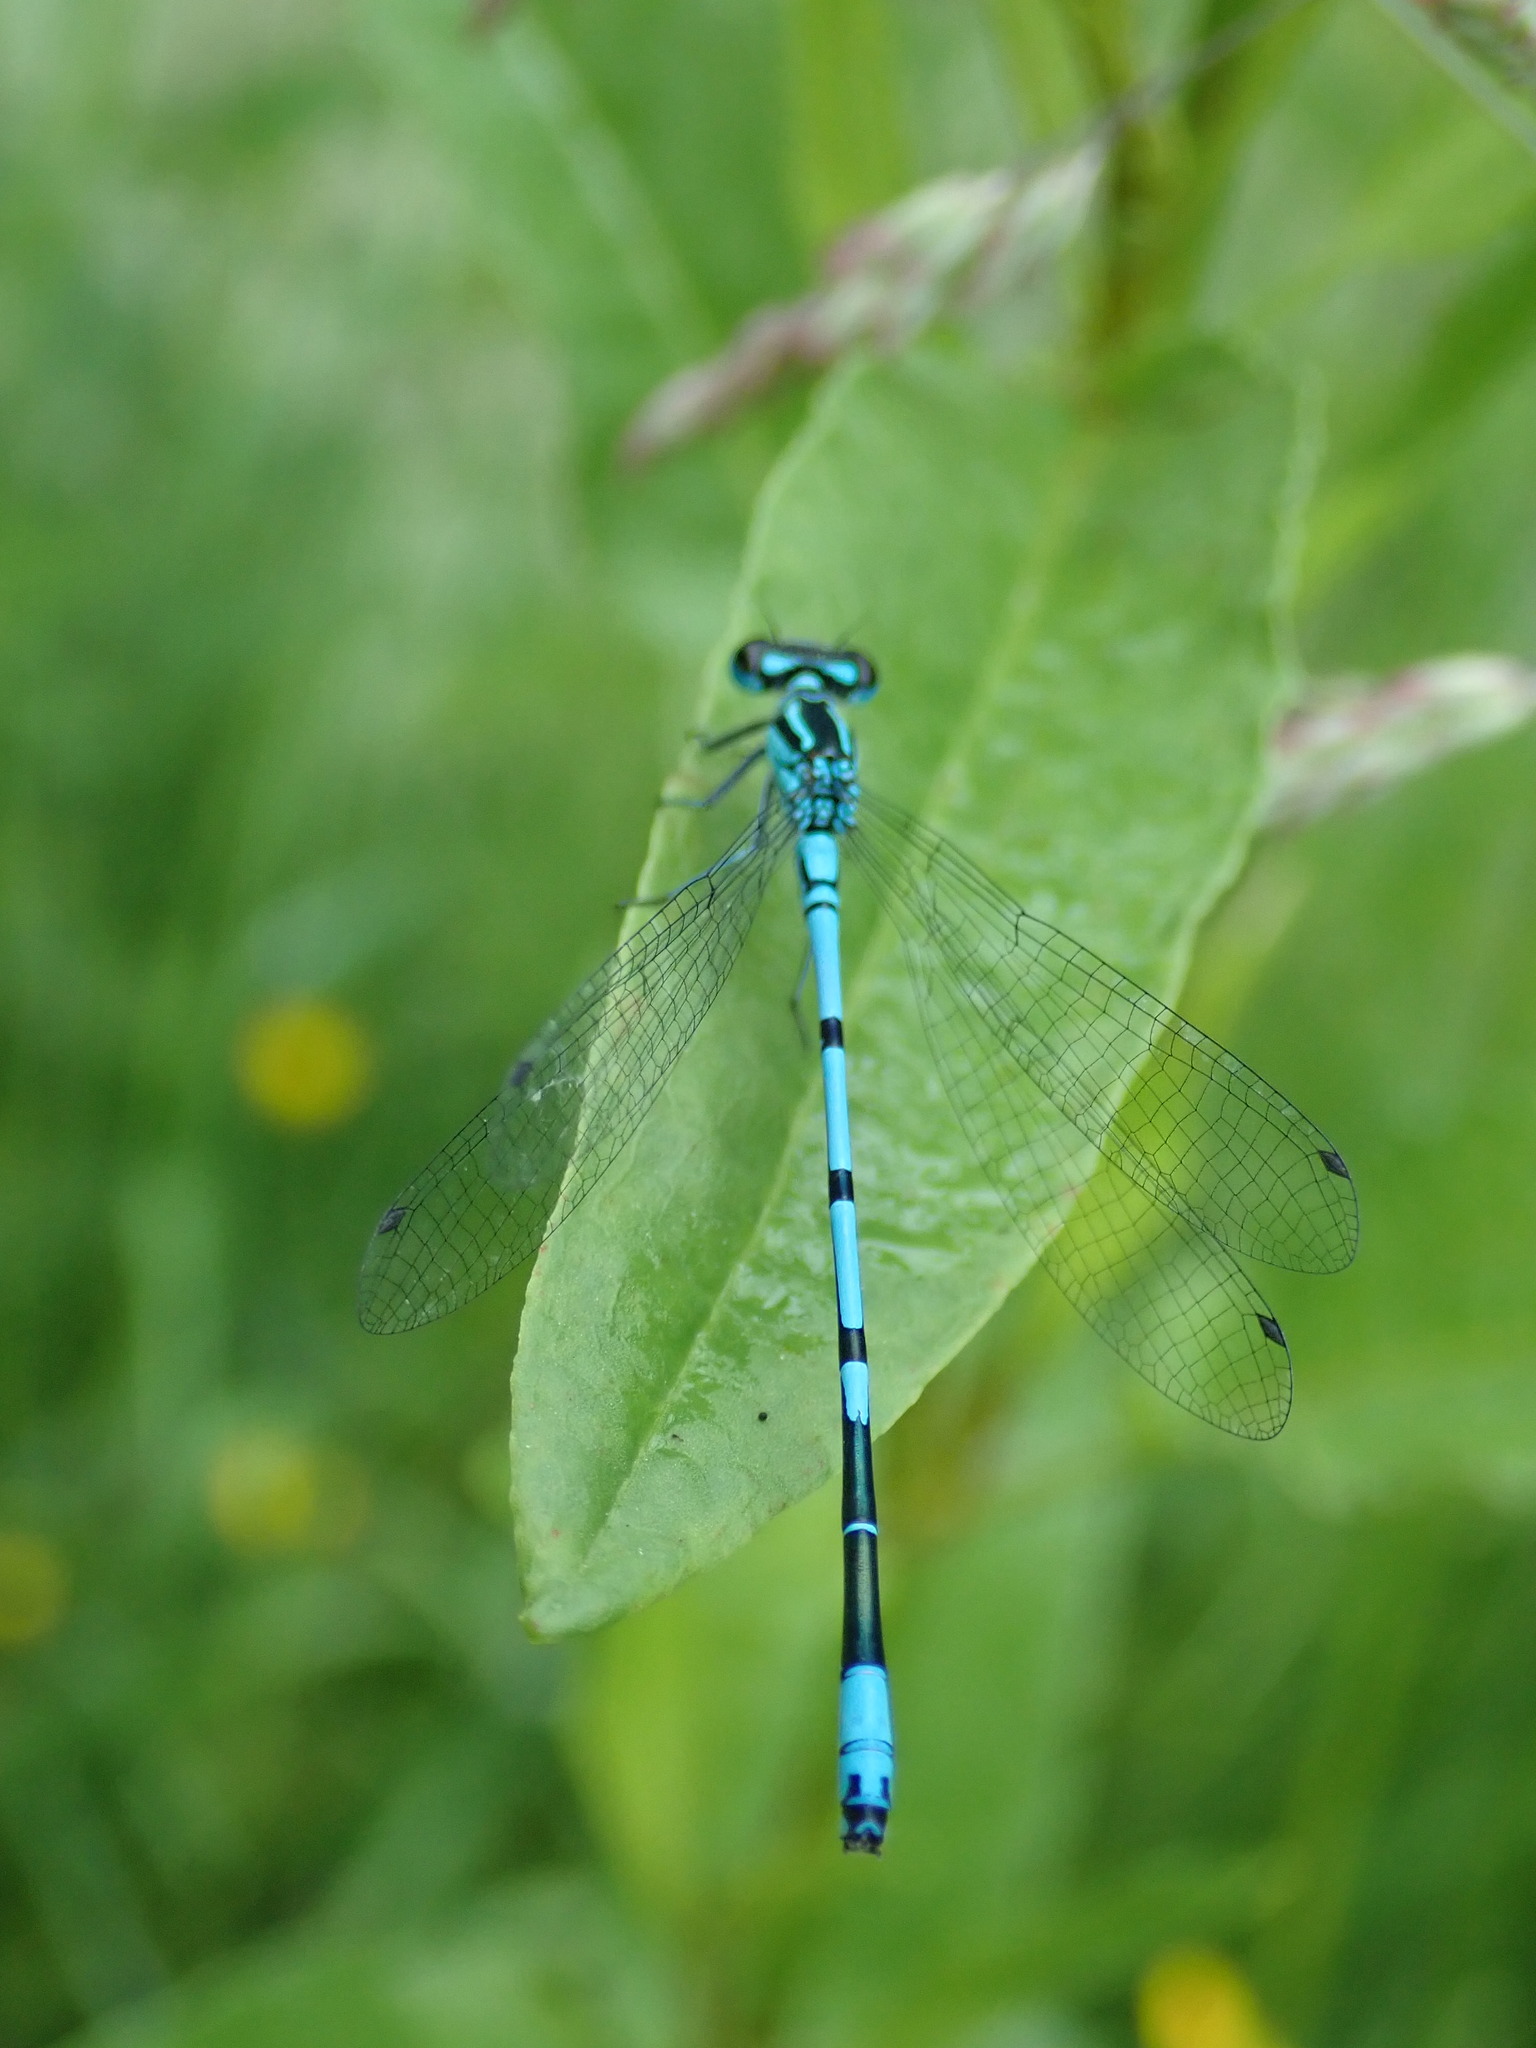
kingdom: Animalia
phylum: Arthropoda
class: Insecta
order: Odonata
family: Coenagrionidae
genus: Coenagrion
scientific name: Coenagrion puella
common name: Azure damselfly
